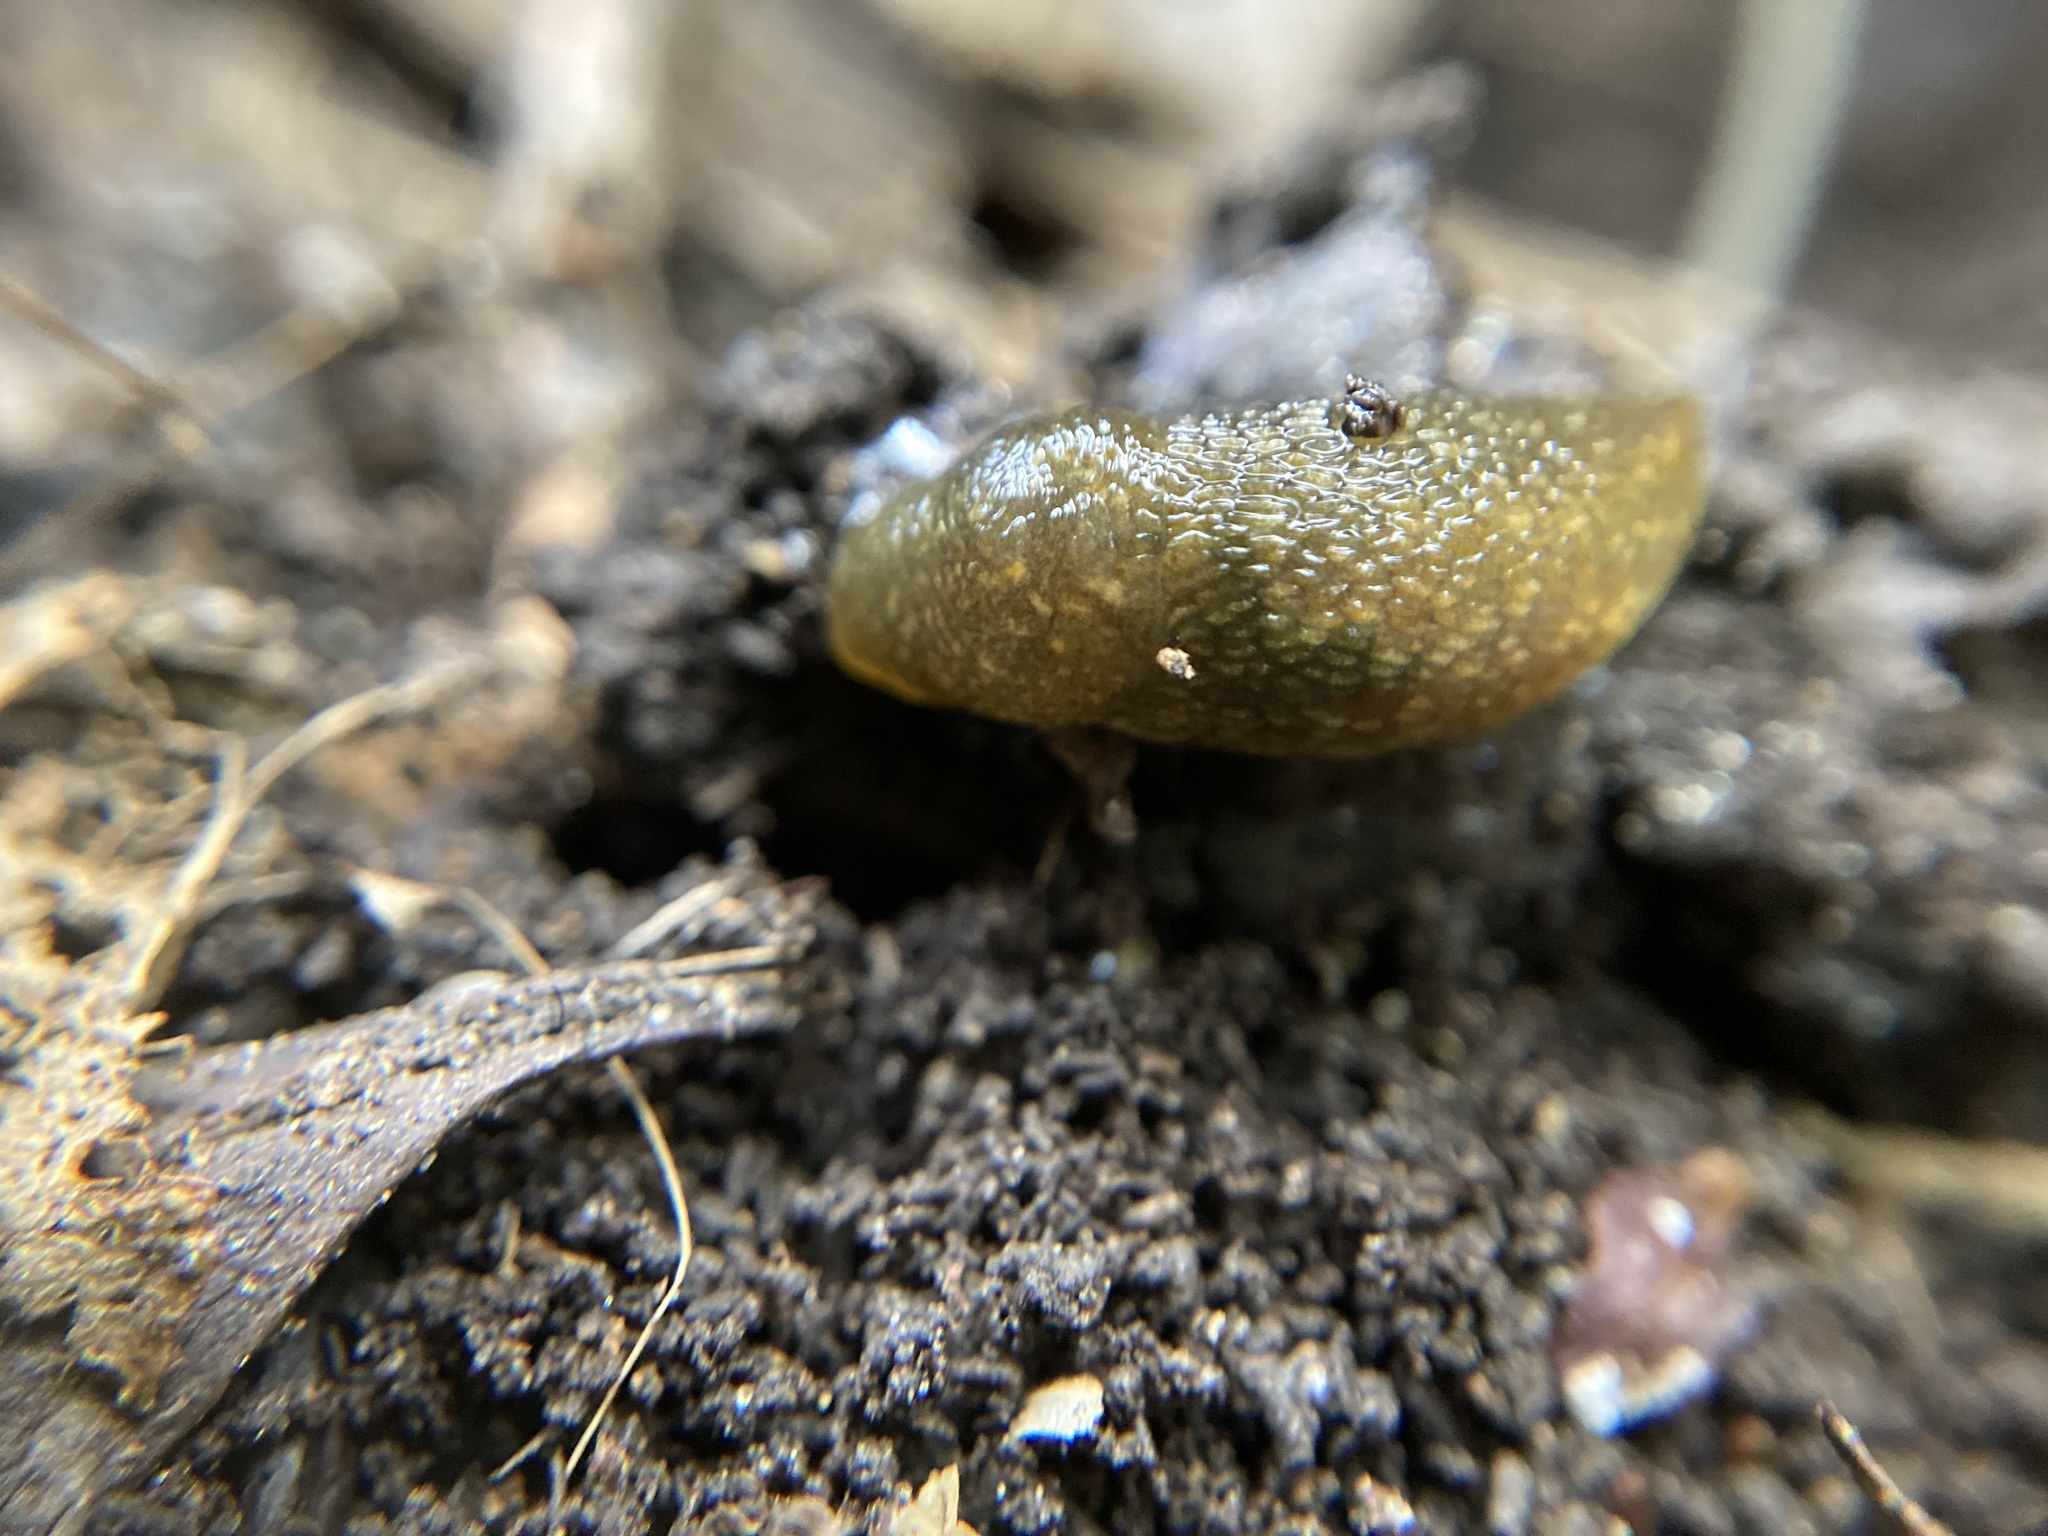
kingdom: Animalia
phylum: Mollusca
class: Gastropoda
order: Stylommatophora
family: Limacidae
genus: Limacus
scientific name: Limacus flavus
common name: Yellow gardenslug
